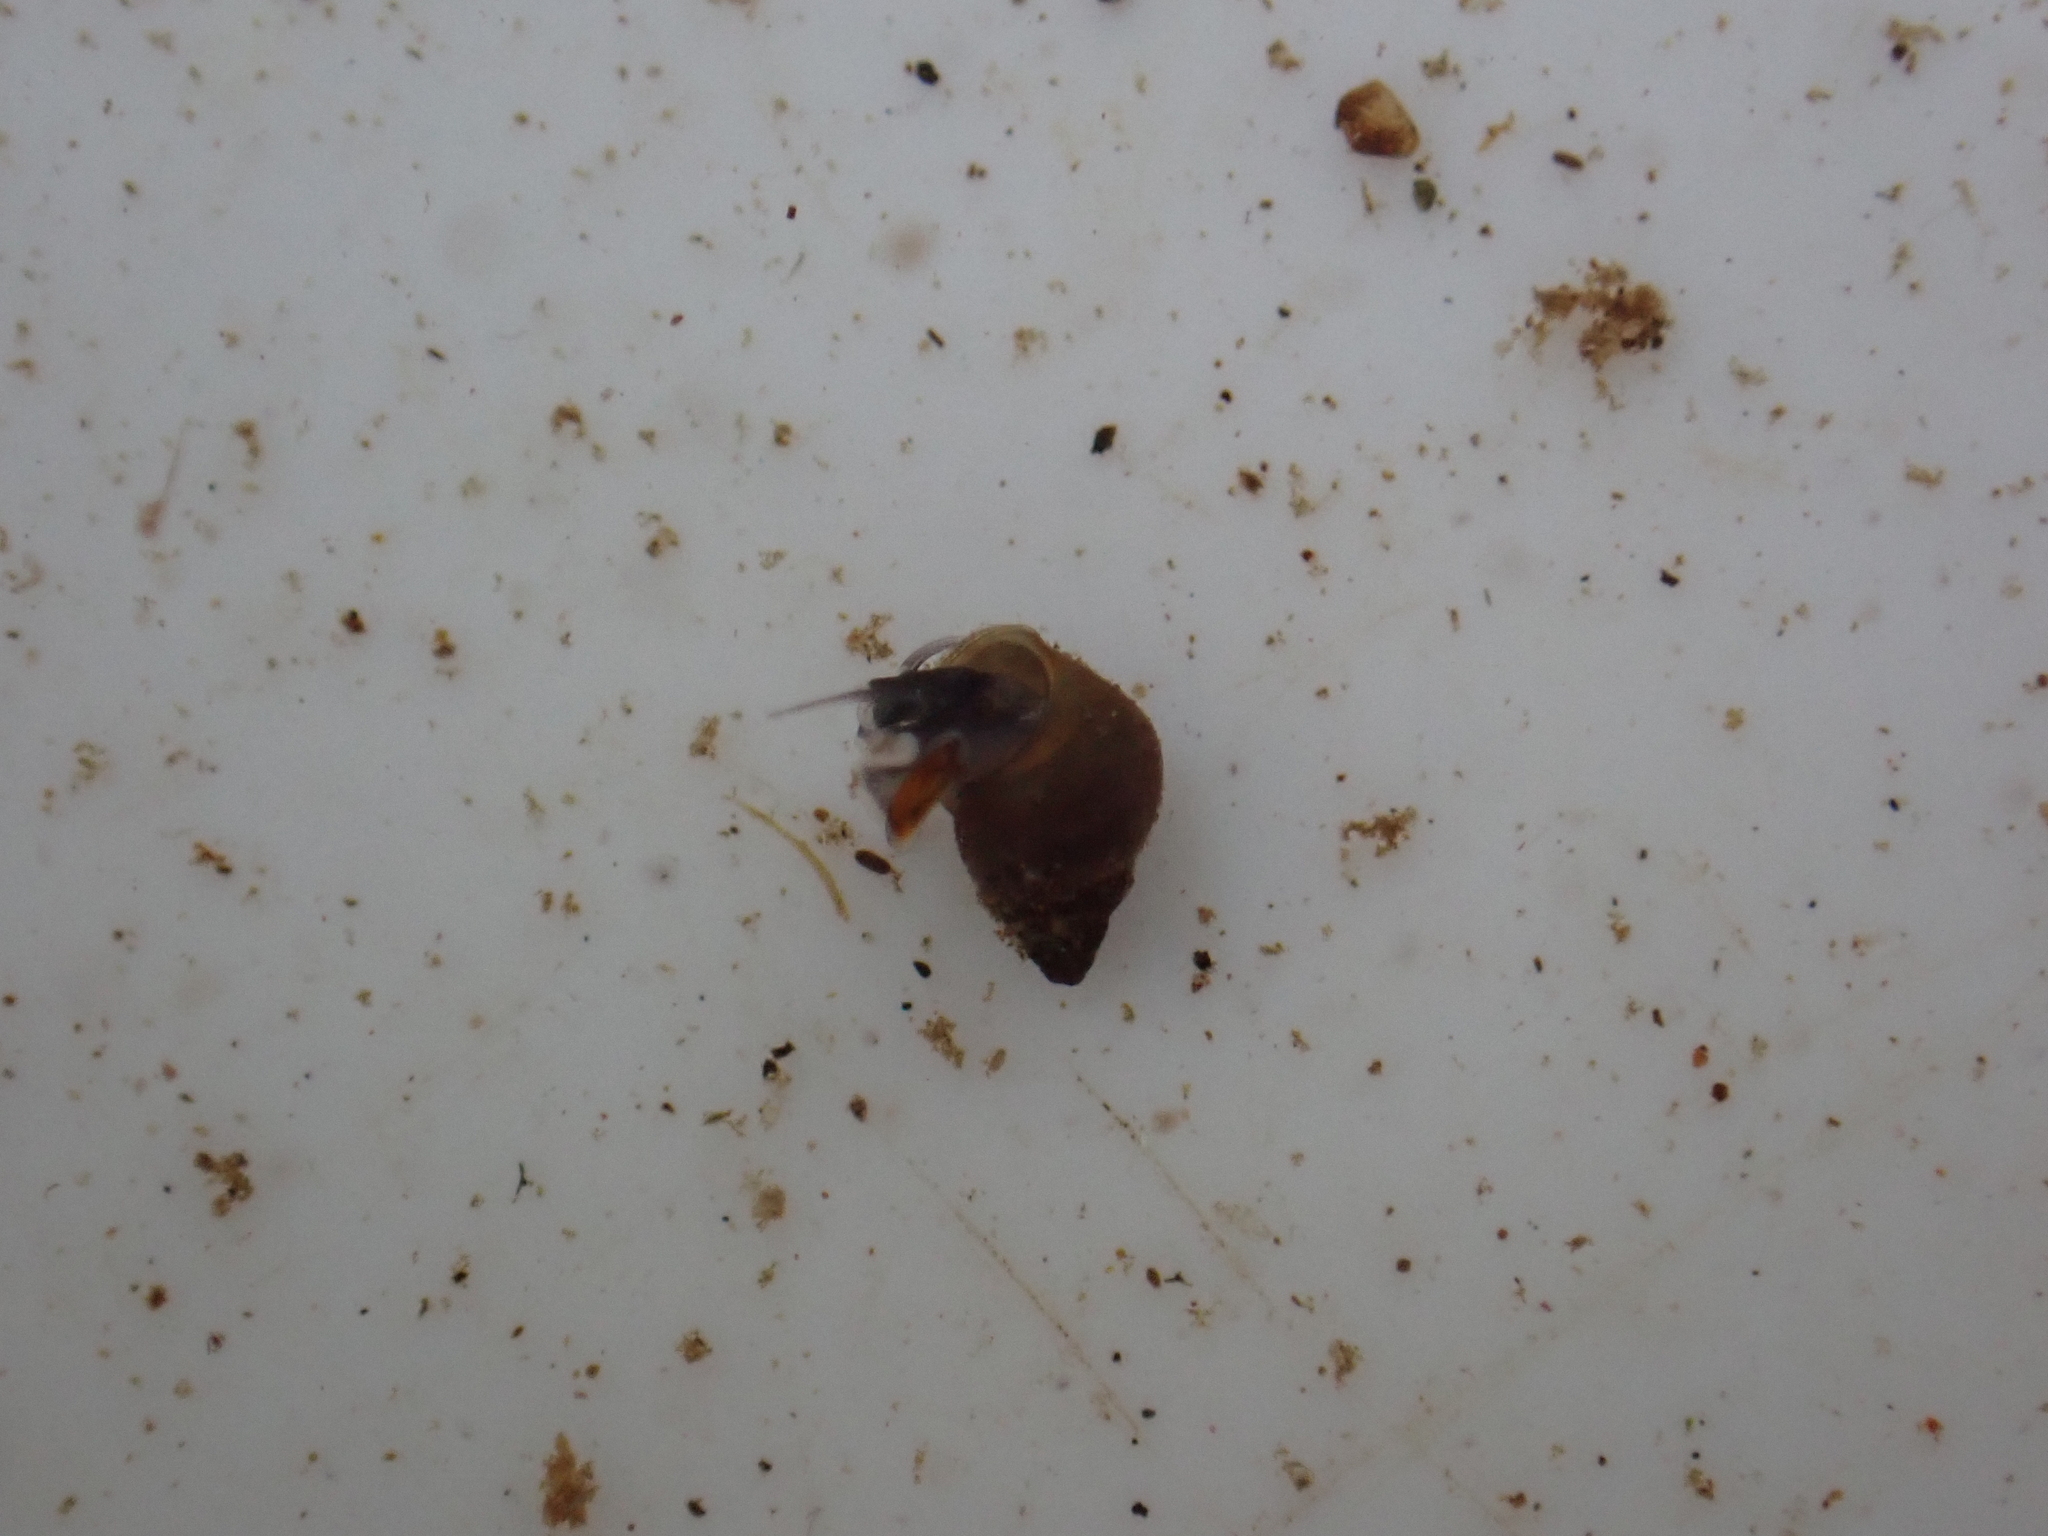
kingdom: Animalia
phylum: Mollusca
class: Gastropoda
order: Littorinimorpha
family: Tateidae
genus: Potamopyrgus
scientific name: Potamopyrgus antipodarum
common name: Jenkins' spire snail
